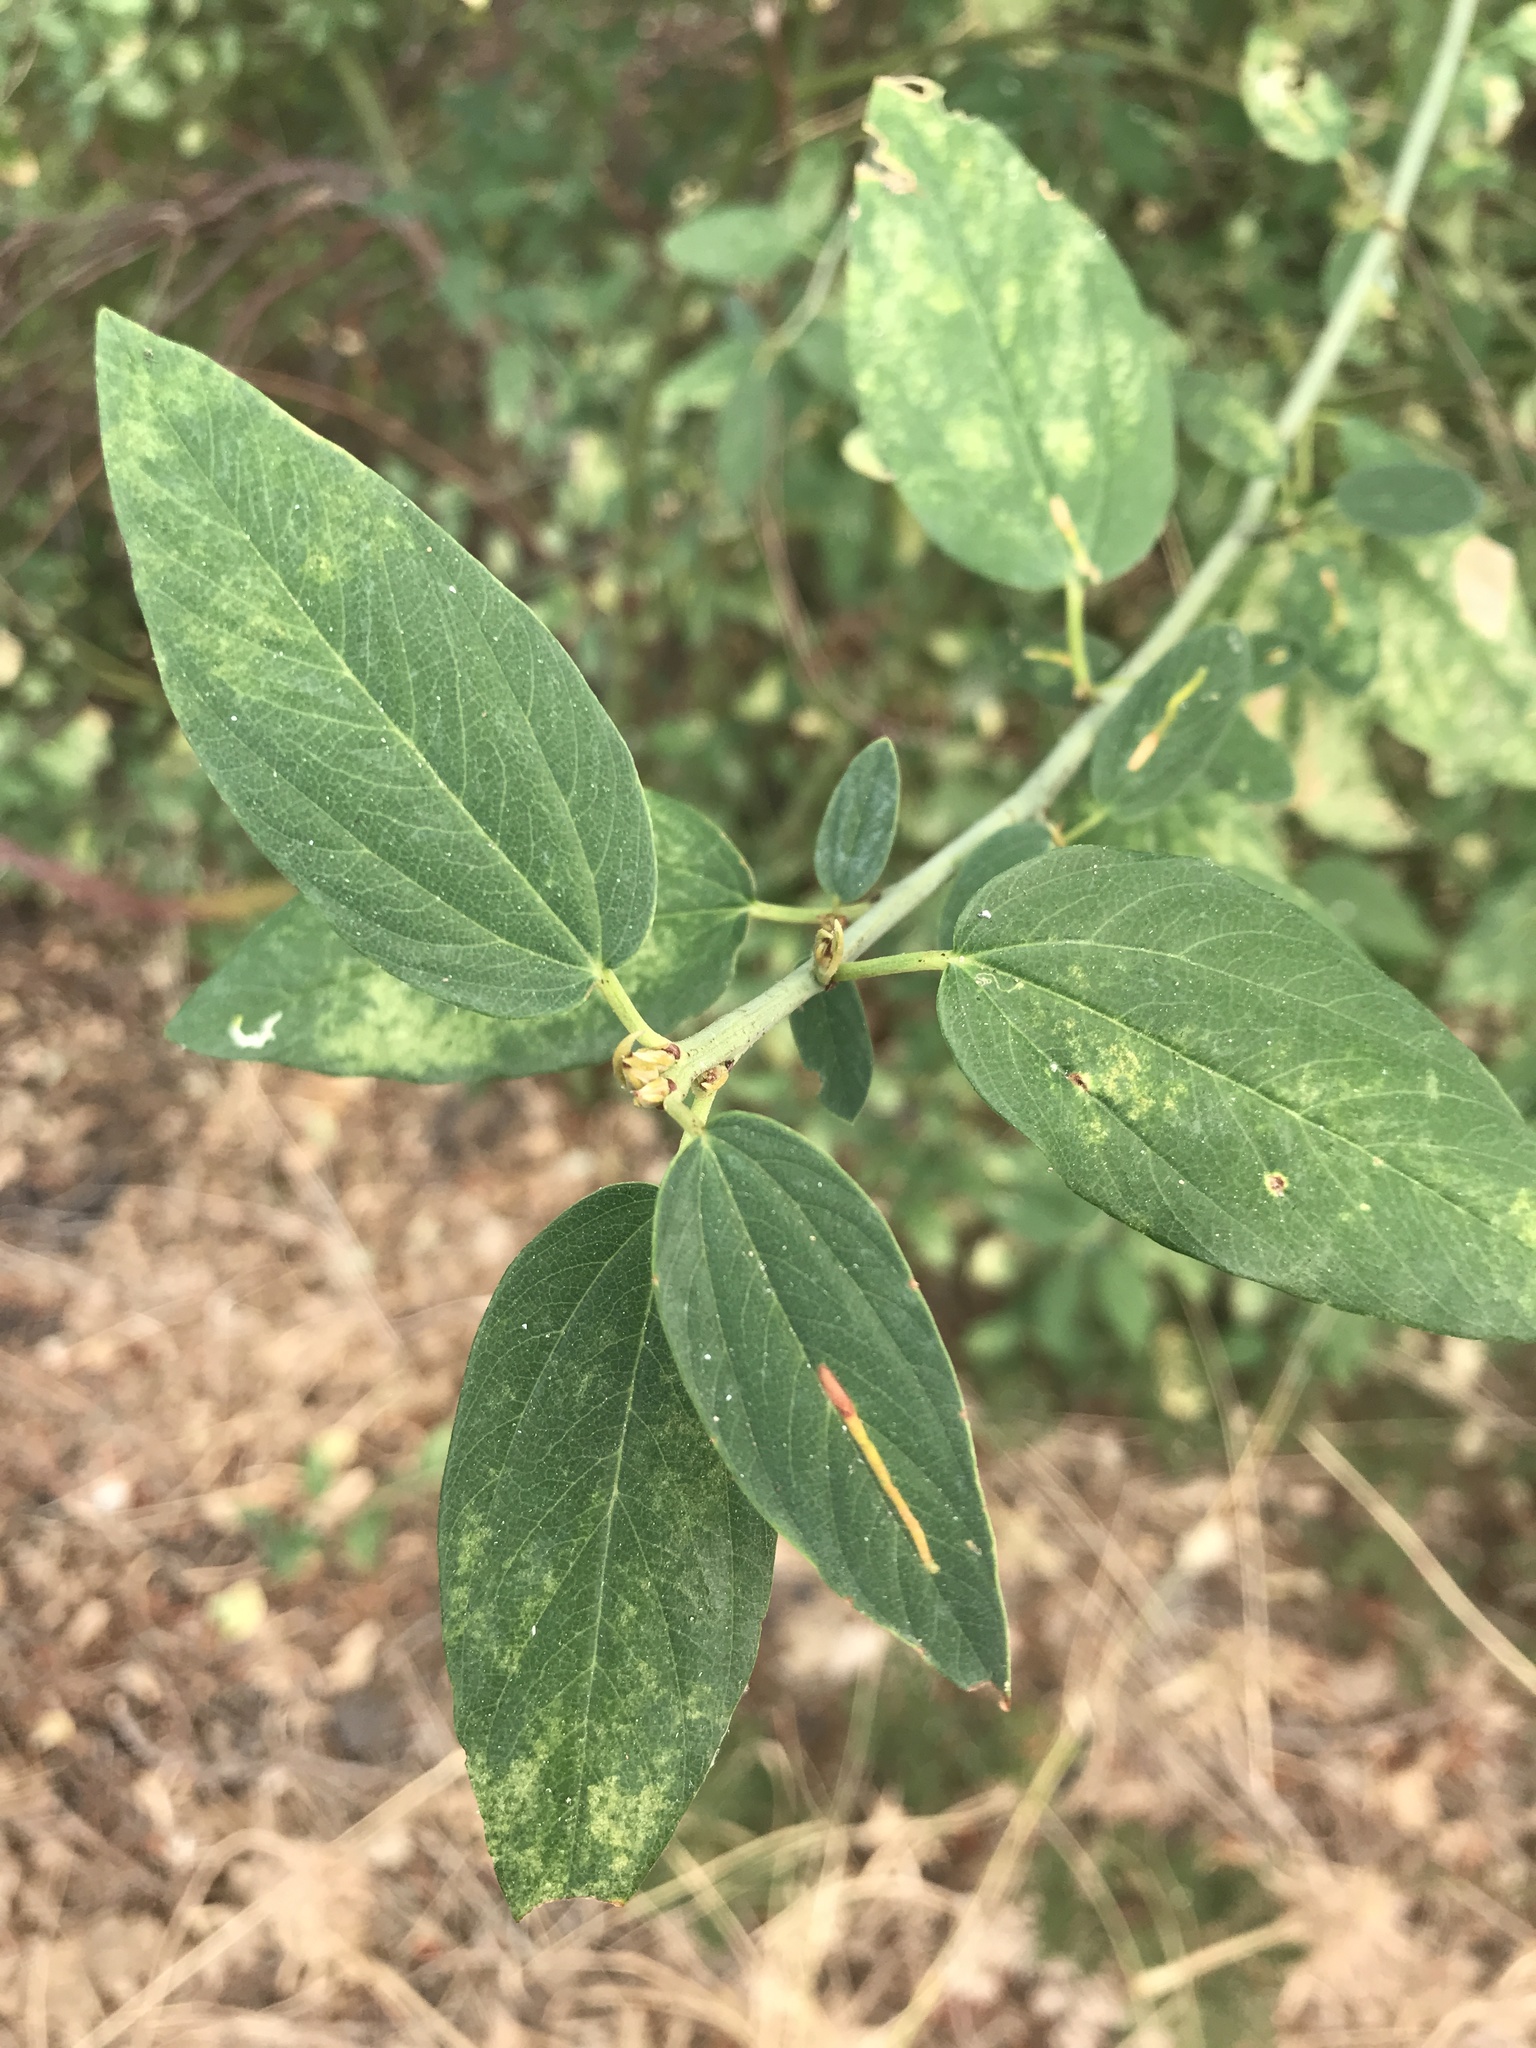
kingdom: Plantae
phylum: Tracheophyta
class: Magnoliopsida
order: Rosales
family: Rhamnaceae
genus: Ceanothus
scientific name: Ceanothus integerrimus
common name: Deerbrush ceanothus
